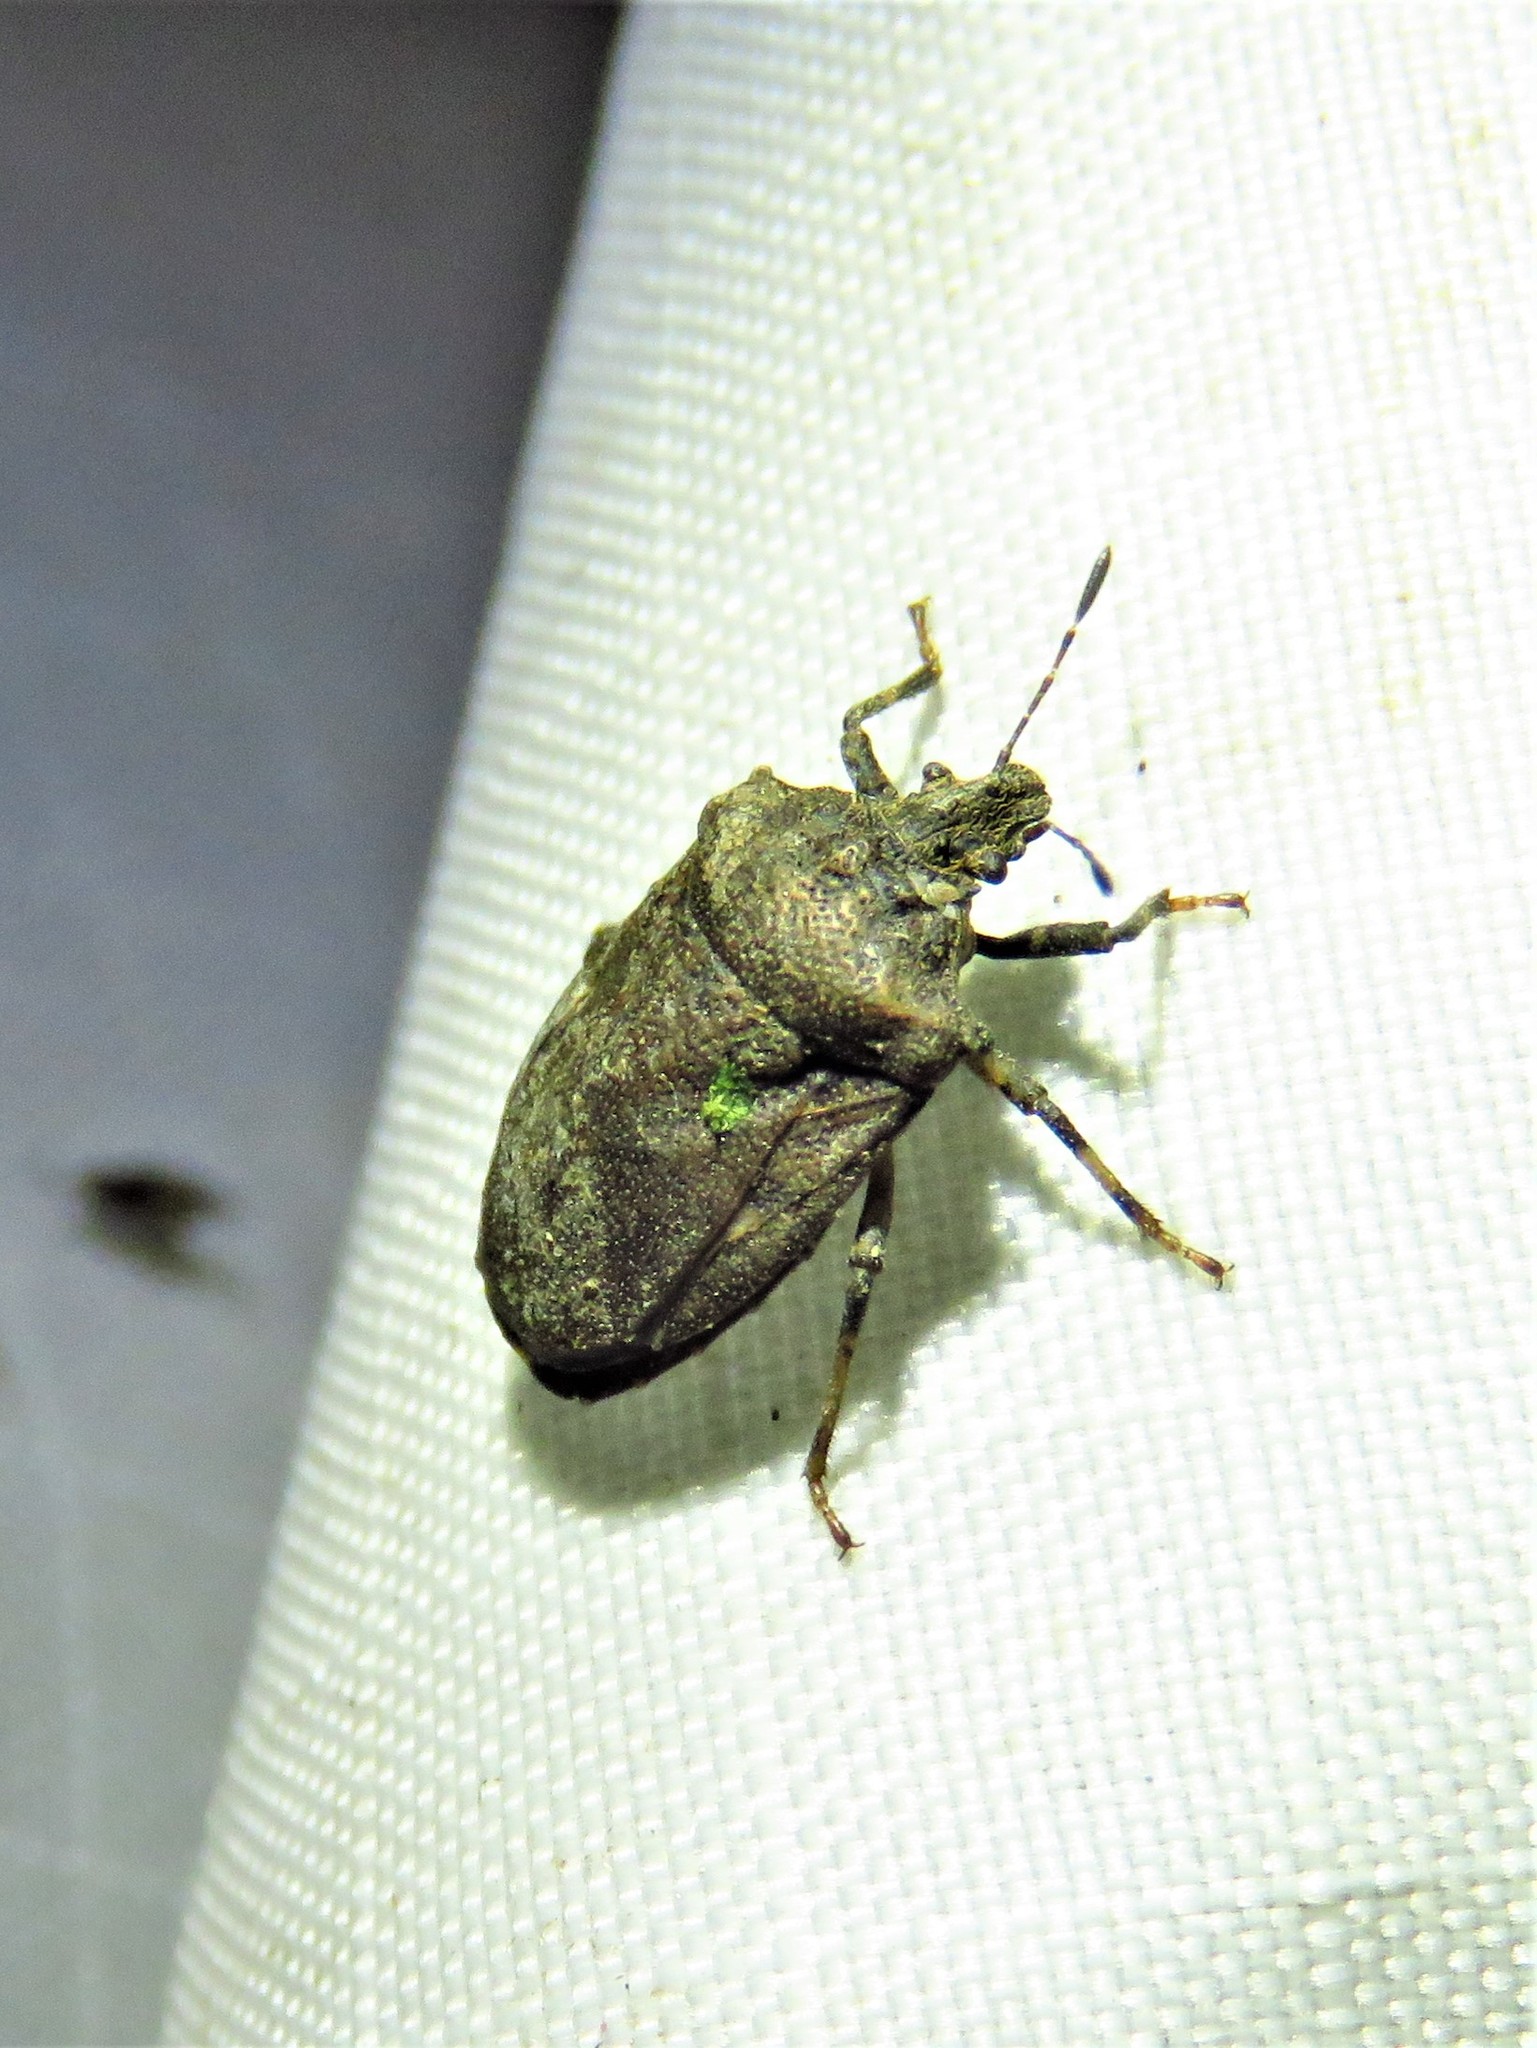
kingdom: Animalia
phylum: Arthropoda
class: Insecta
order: Hemiptera
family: Pentatomidae
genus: Amaurochrous
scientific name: Amaurochrous cinctipes
